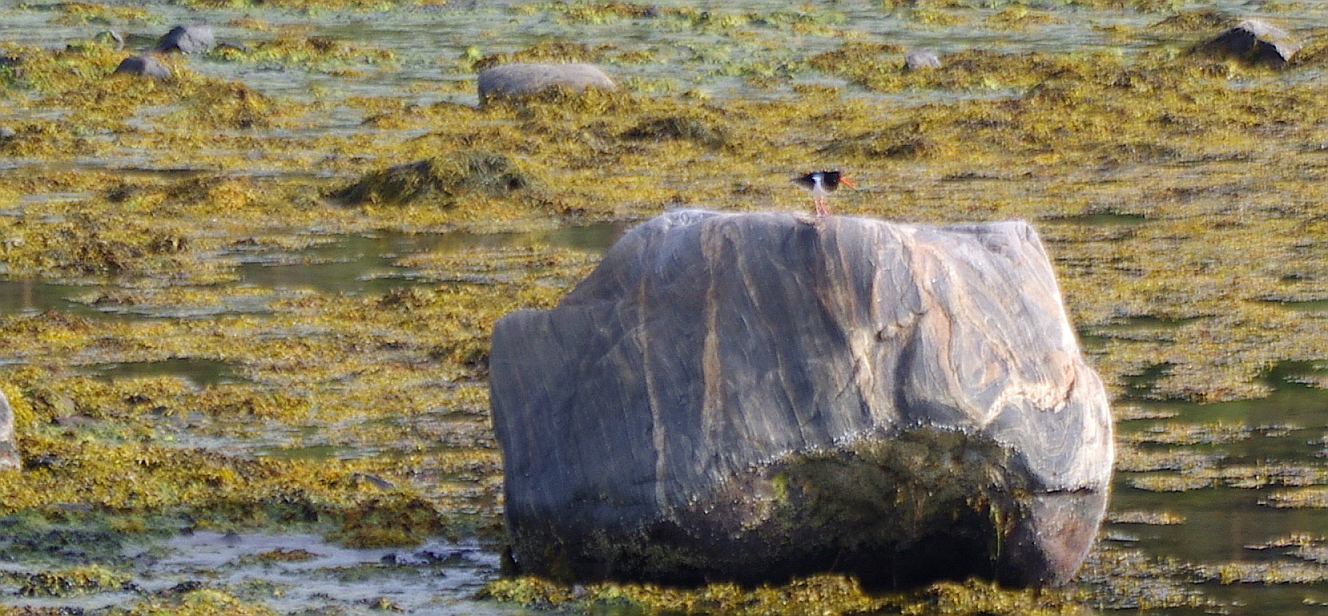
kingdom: Animalia
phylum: Chordata
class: Aves
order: Charadriiformes
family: Haematopodidae
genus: Haematopus
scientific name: Haematopus ostralegus
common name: Eurasian oystercatcher
